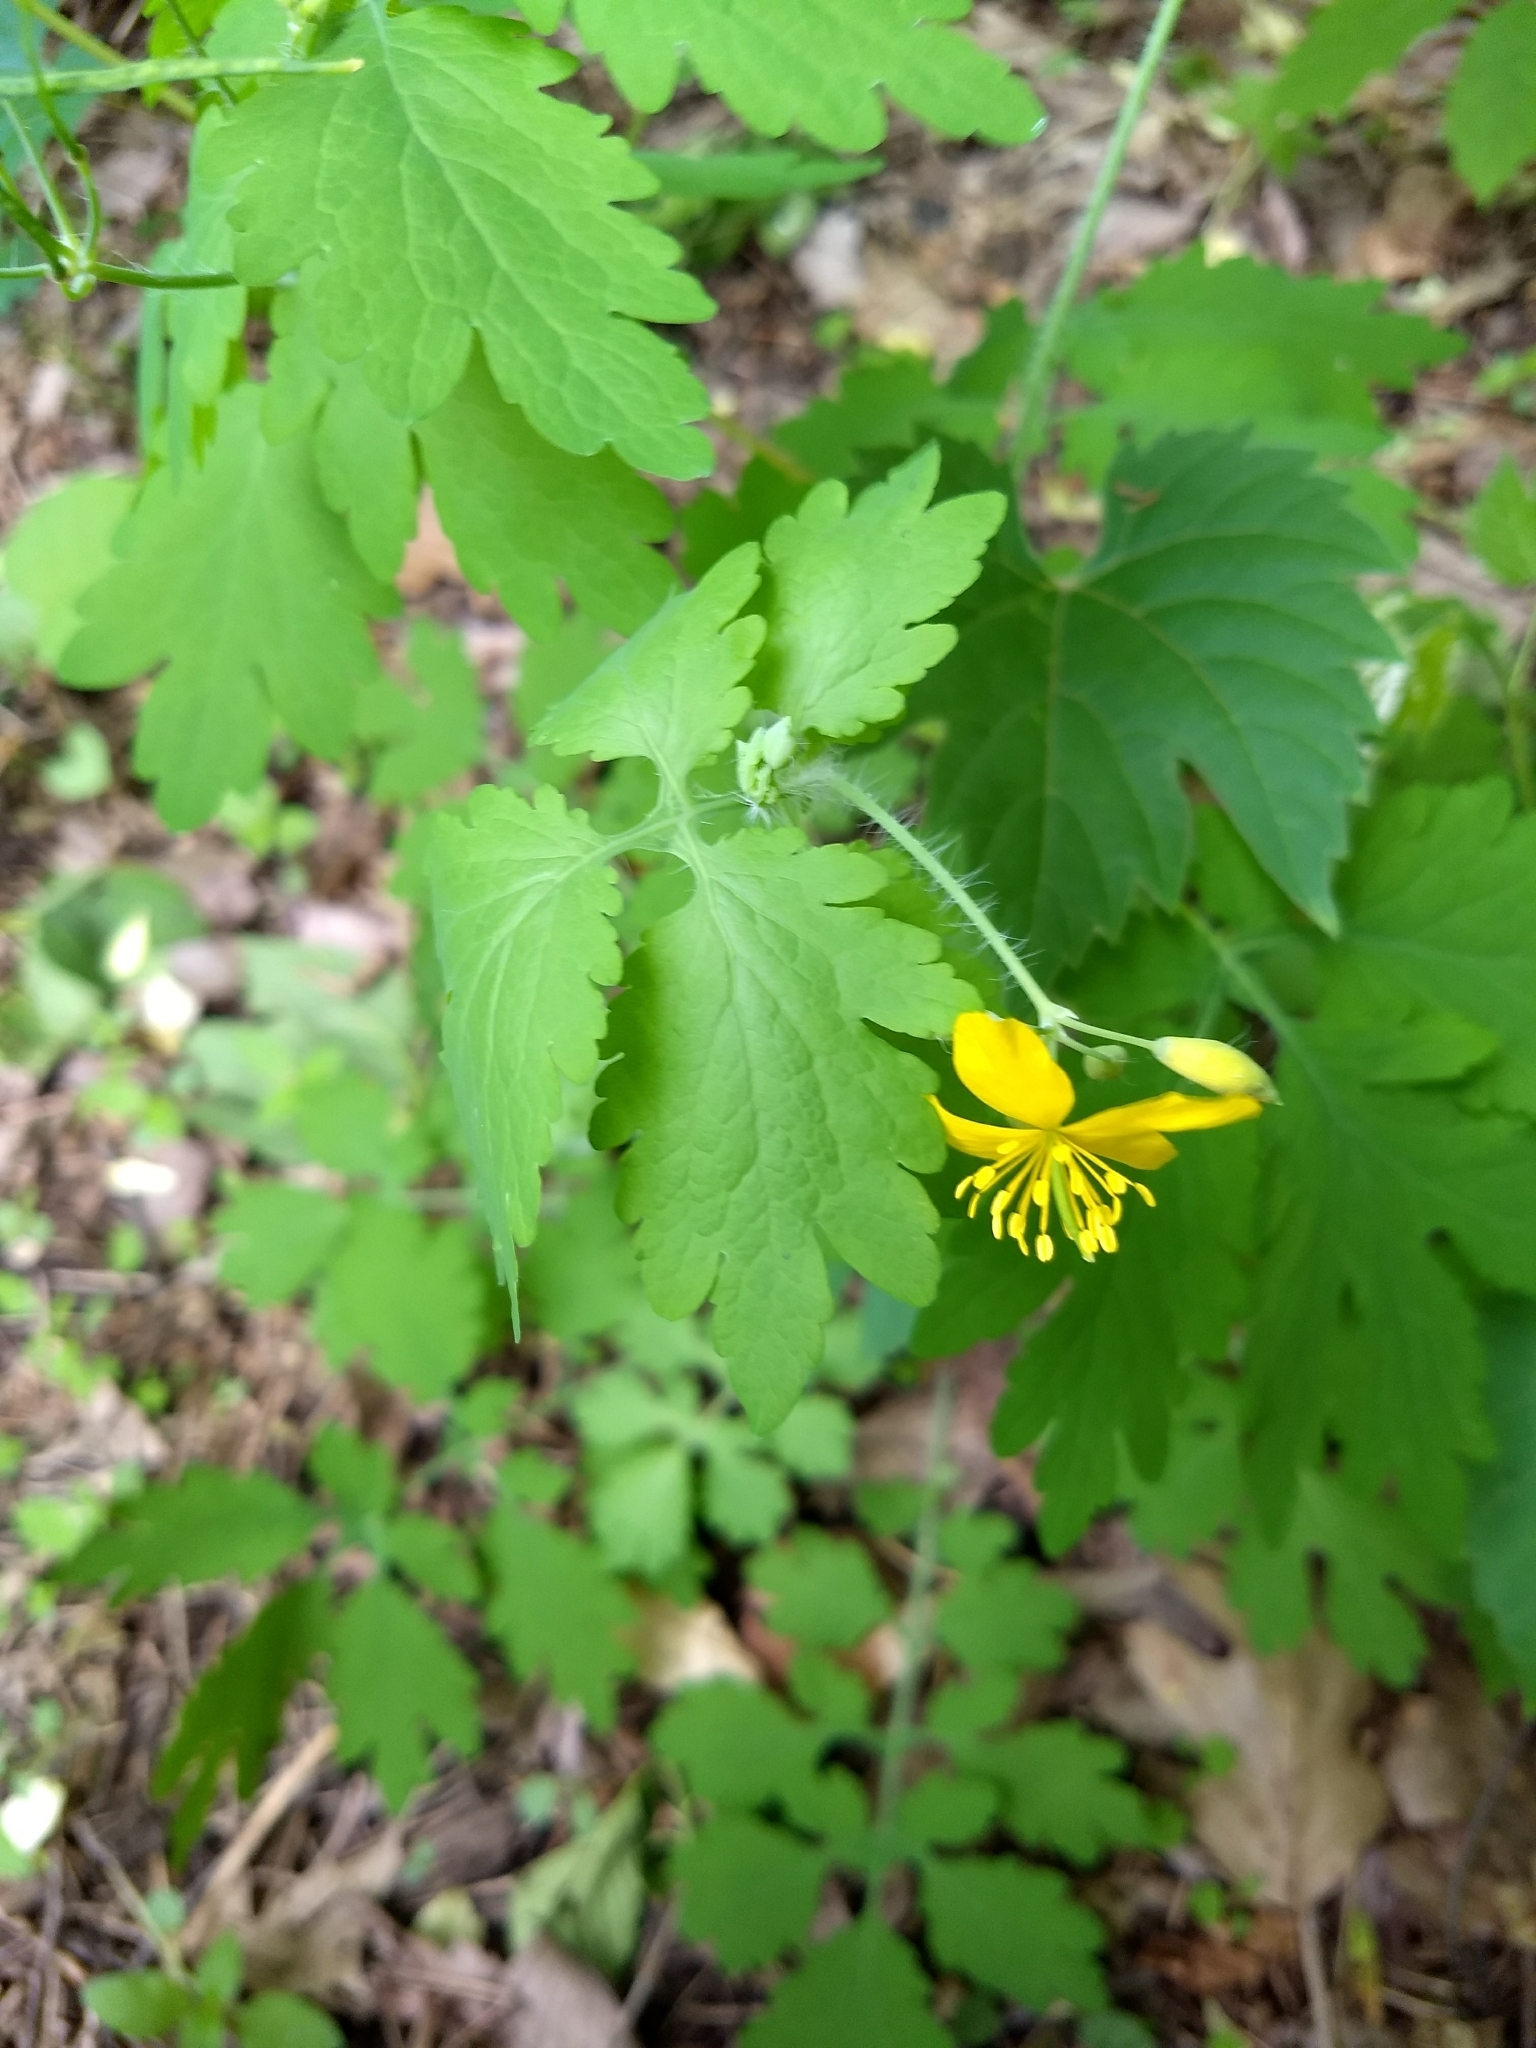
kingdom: Plantae
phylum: Tracheophyta
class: Magnoliopsida
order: Ranunculales
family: Papaveraceae
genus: Chelidonium
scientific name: Chelidonium majus
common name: Greater celandine
